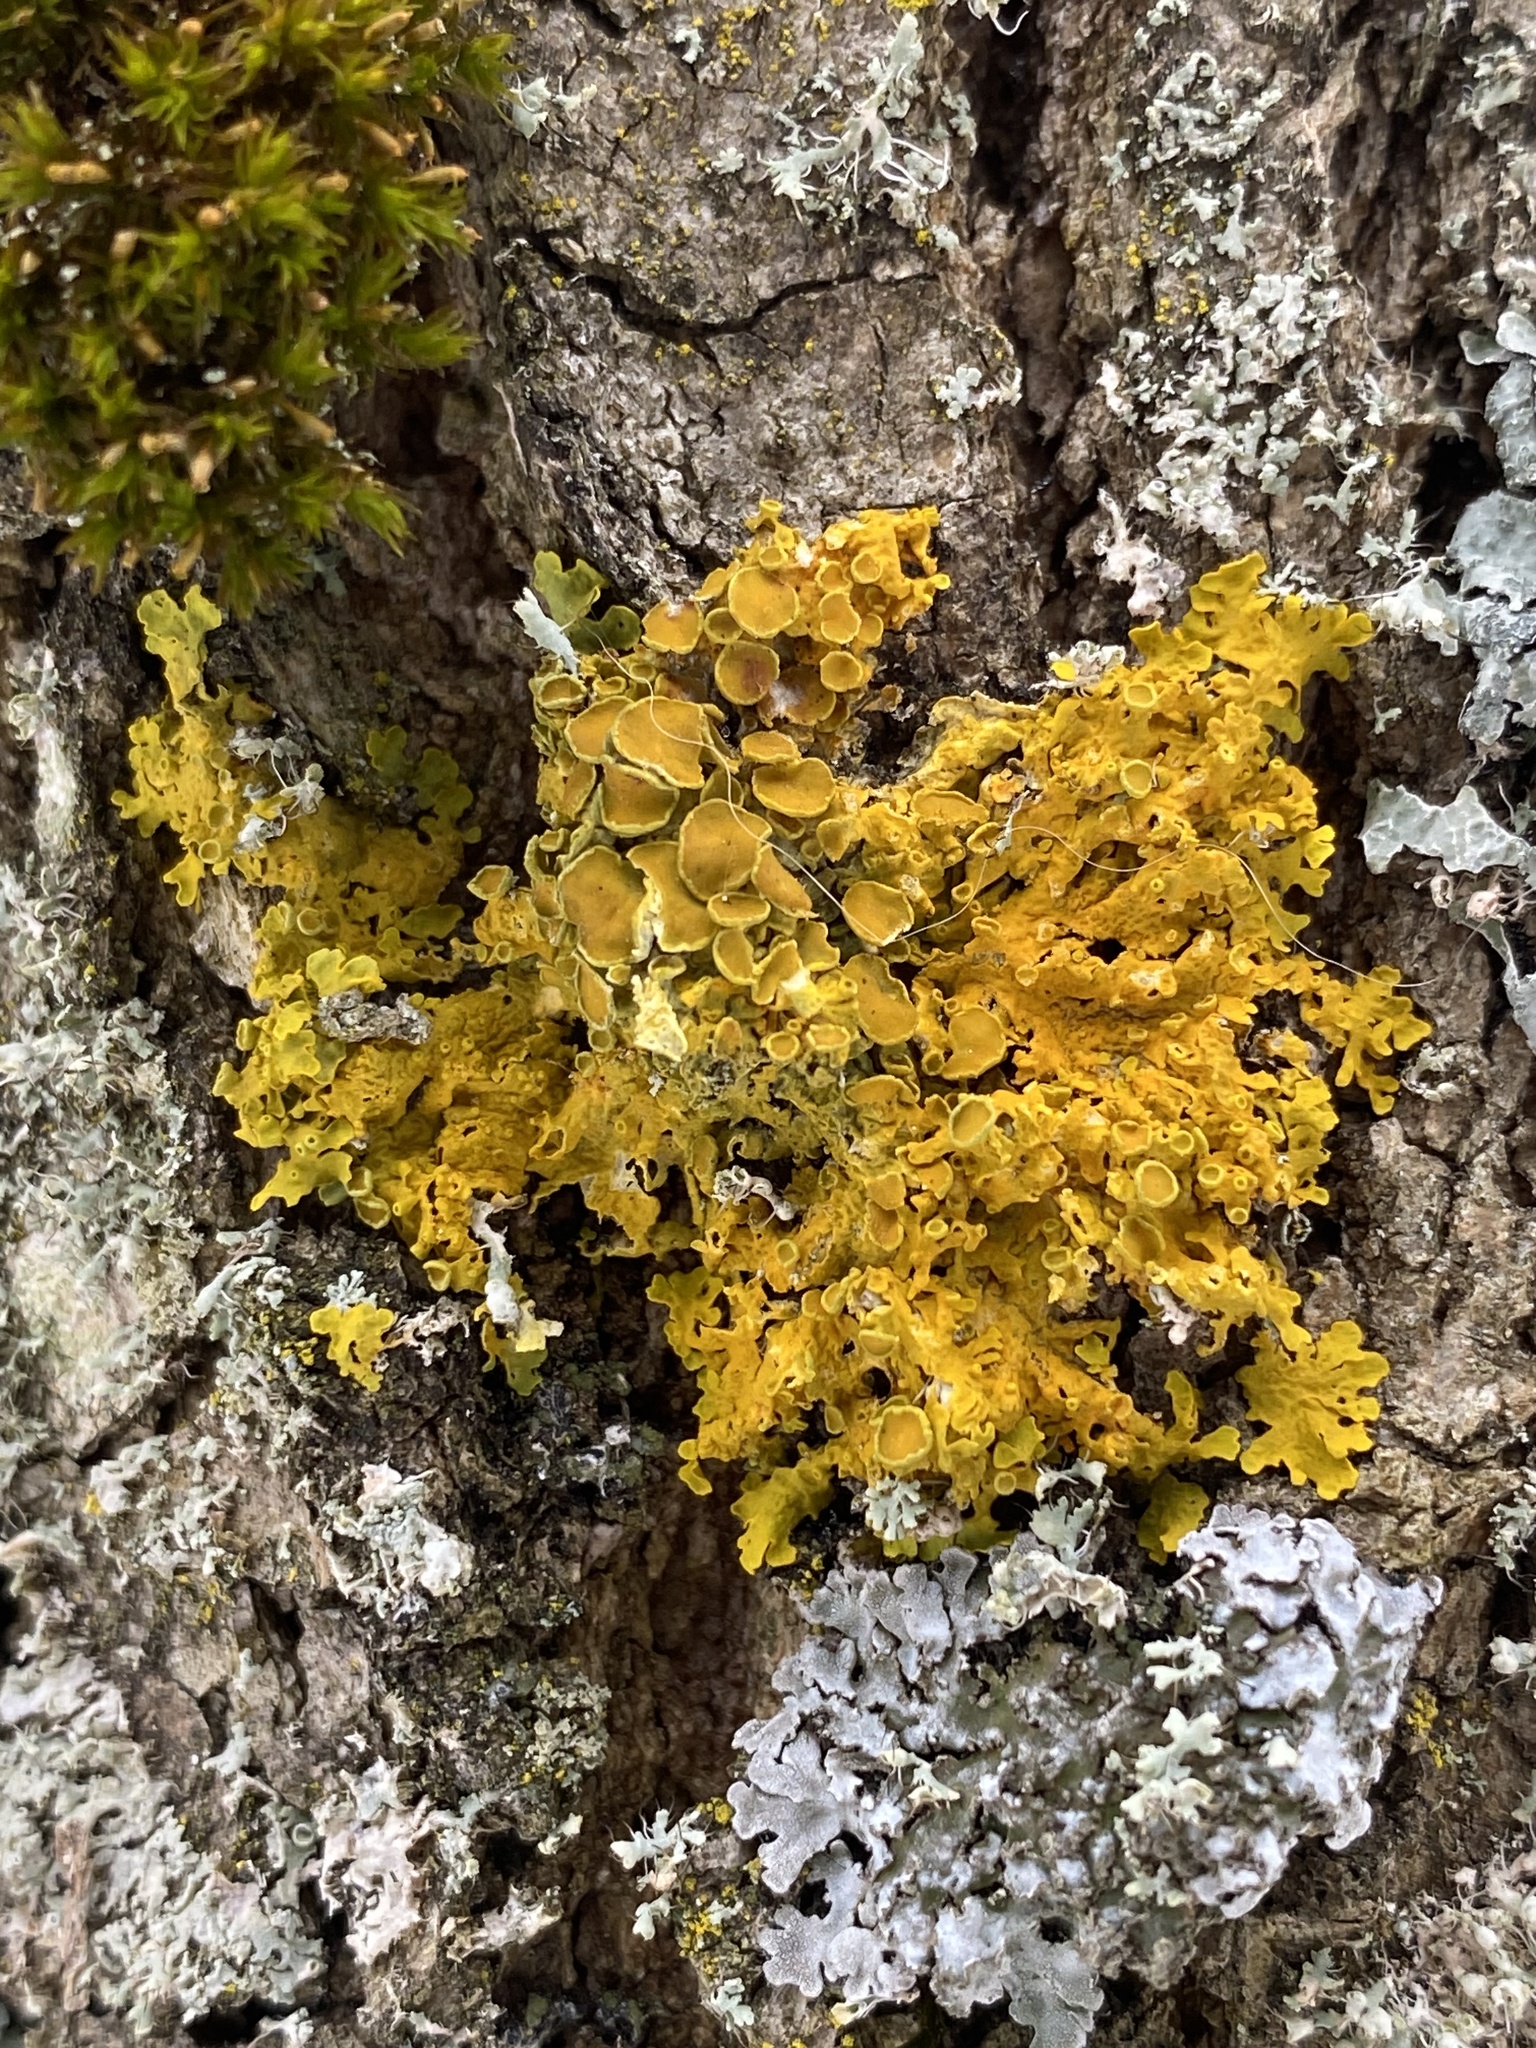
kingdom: Fungi
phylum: Ascomycota
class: Lecanoromycetes
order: Teloschistales
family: Teloschistaceae
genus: Xanthoria
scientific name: Xanthoria parietina
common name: Common orange lichen
